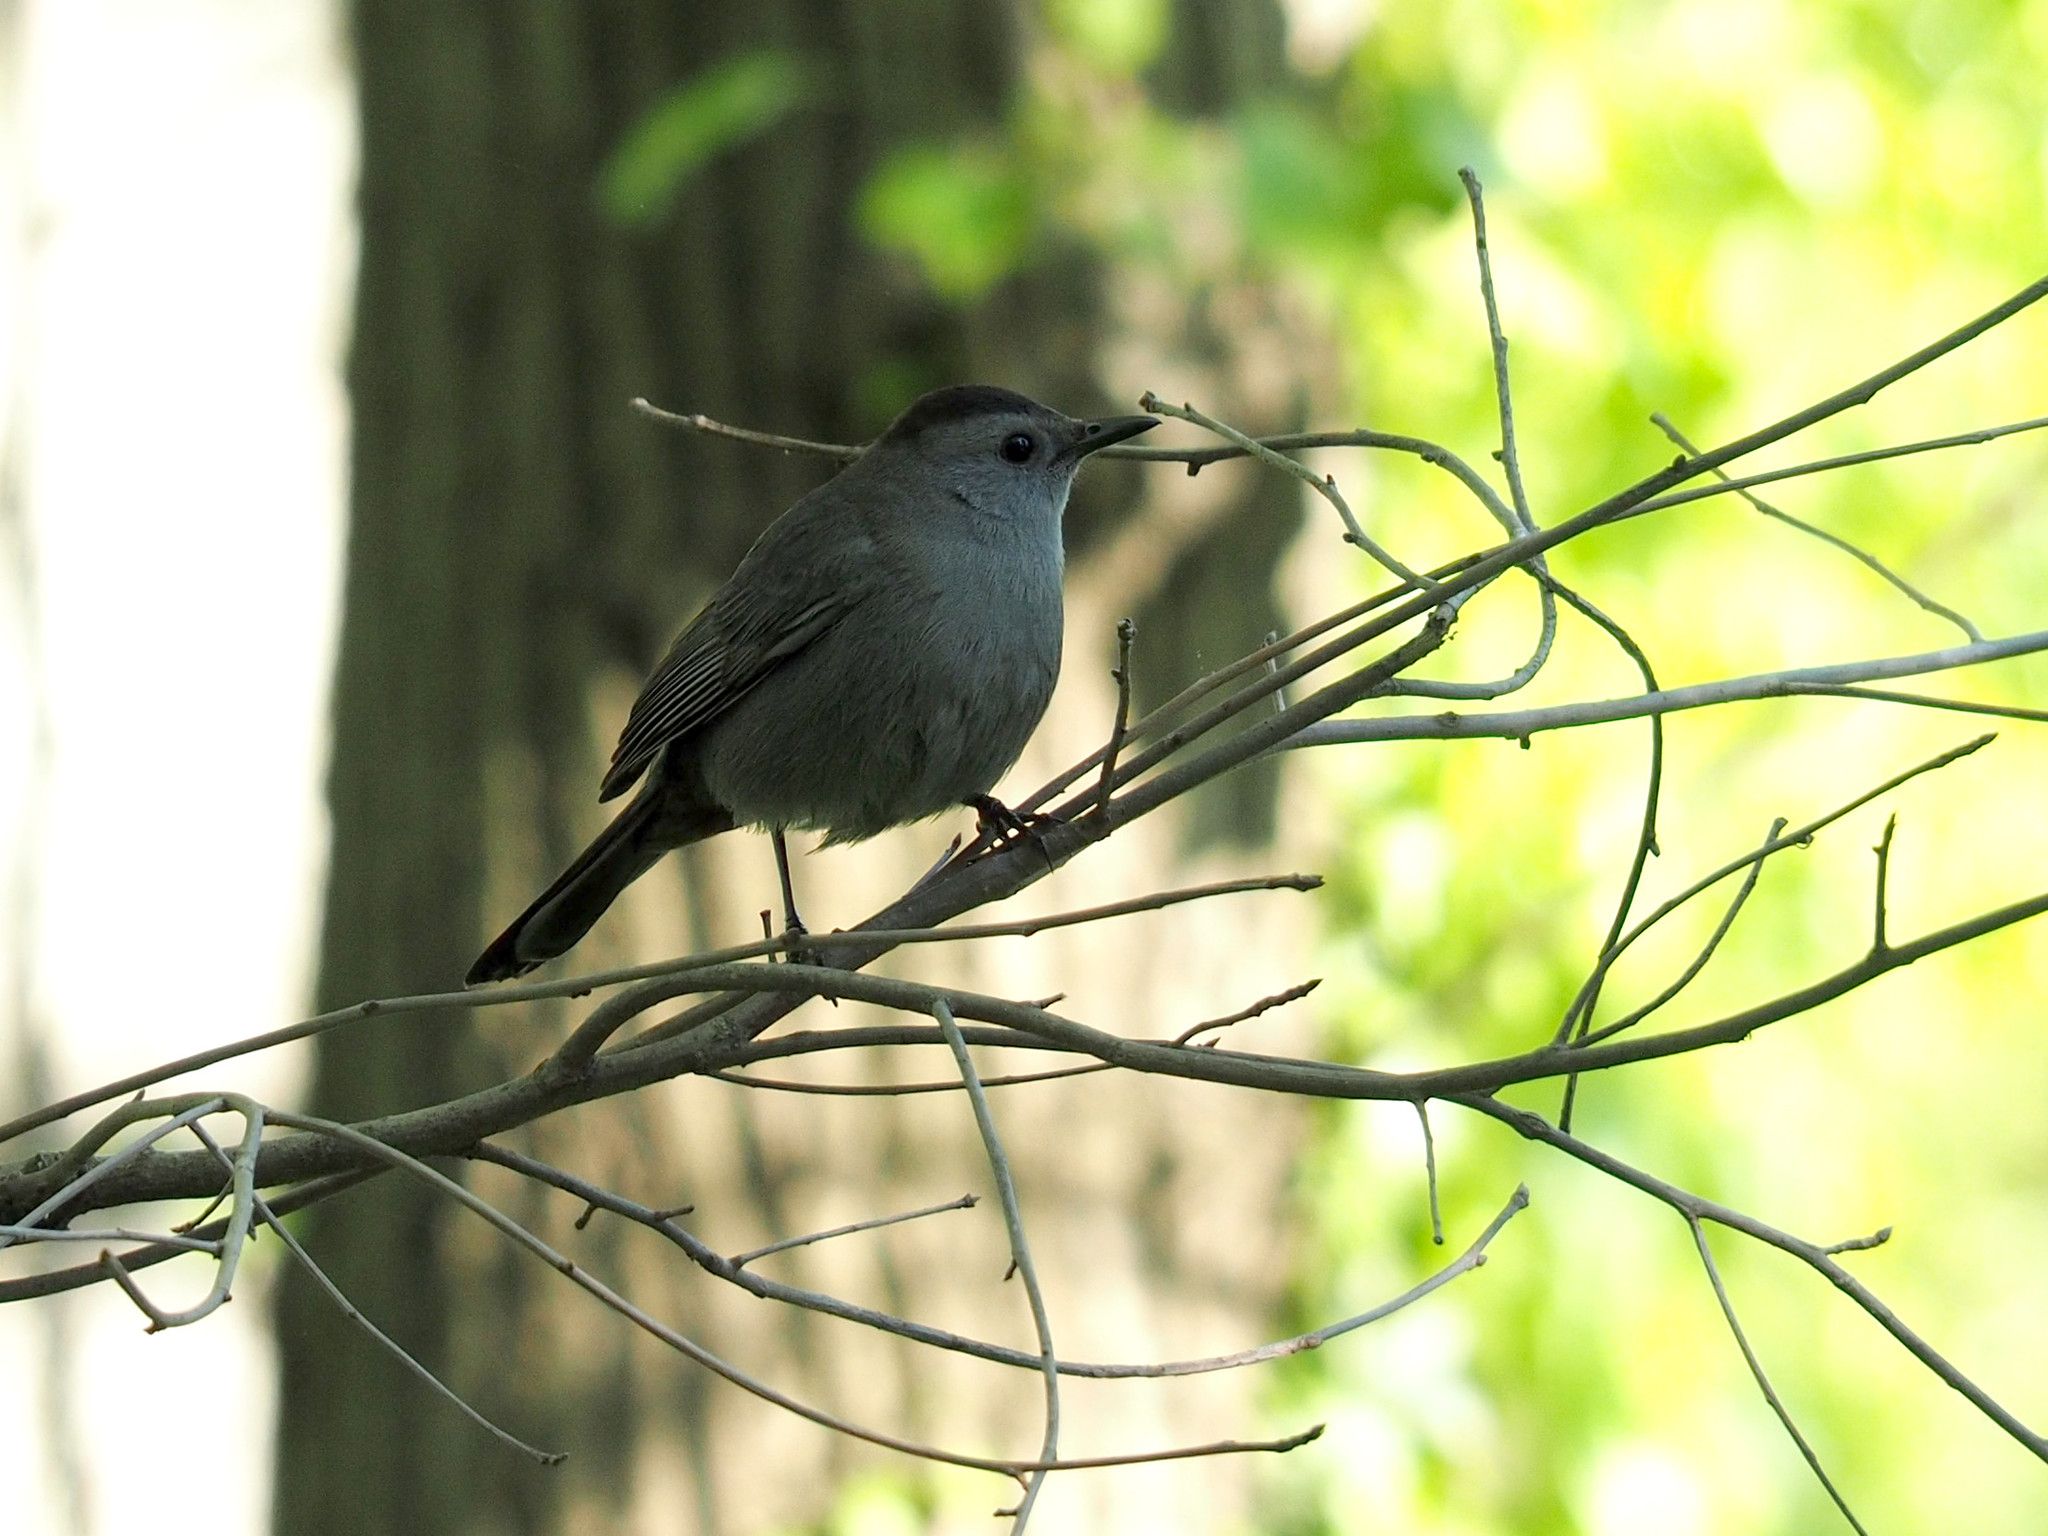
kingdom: Animalia
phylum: Chordata
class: Aves
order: Passeriformes
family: Mimidae
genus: Dumetella
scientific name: Dumetella carolinensis
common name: Gray catbird
